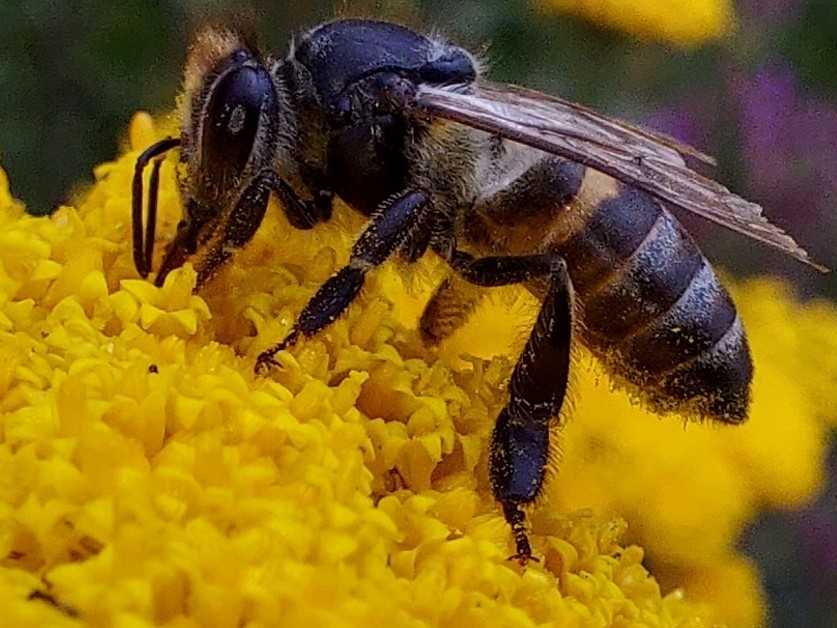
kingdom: Animalia
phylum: Arthropoda
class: Insecta
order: Hymenoptera
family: Apidae
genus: Apis
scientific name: Apis mellifera
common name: Honey bee
